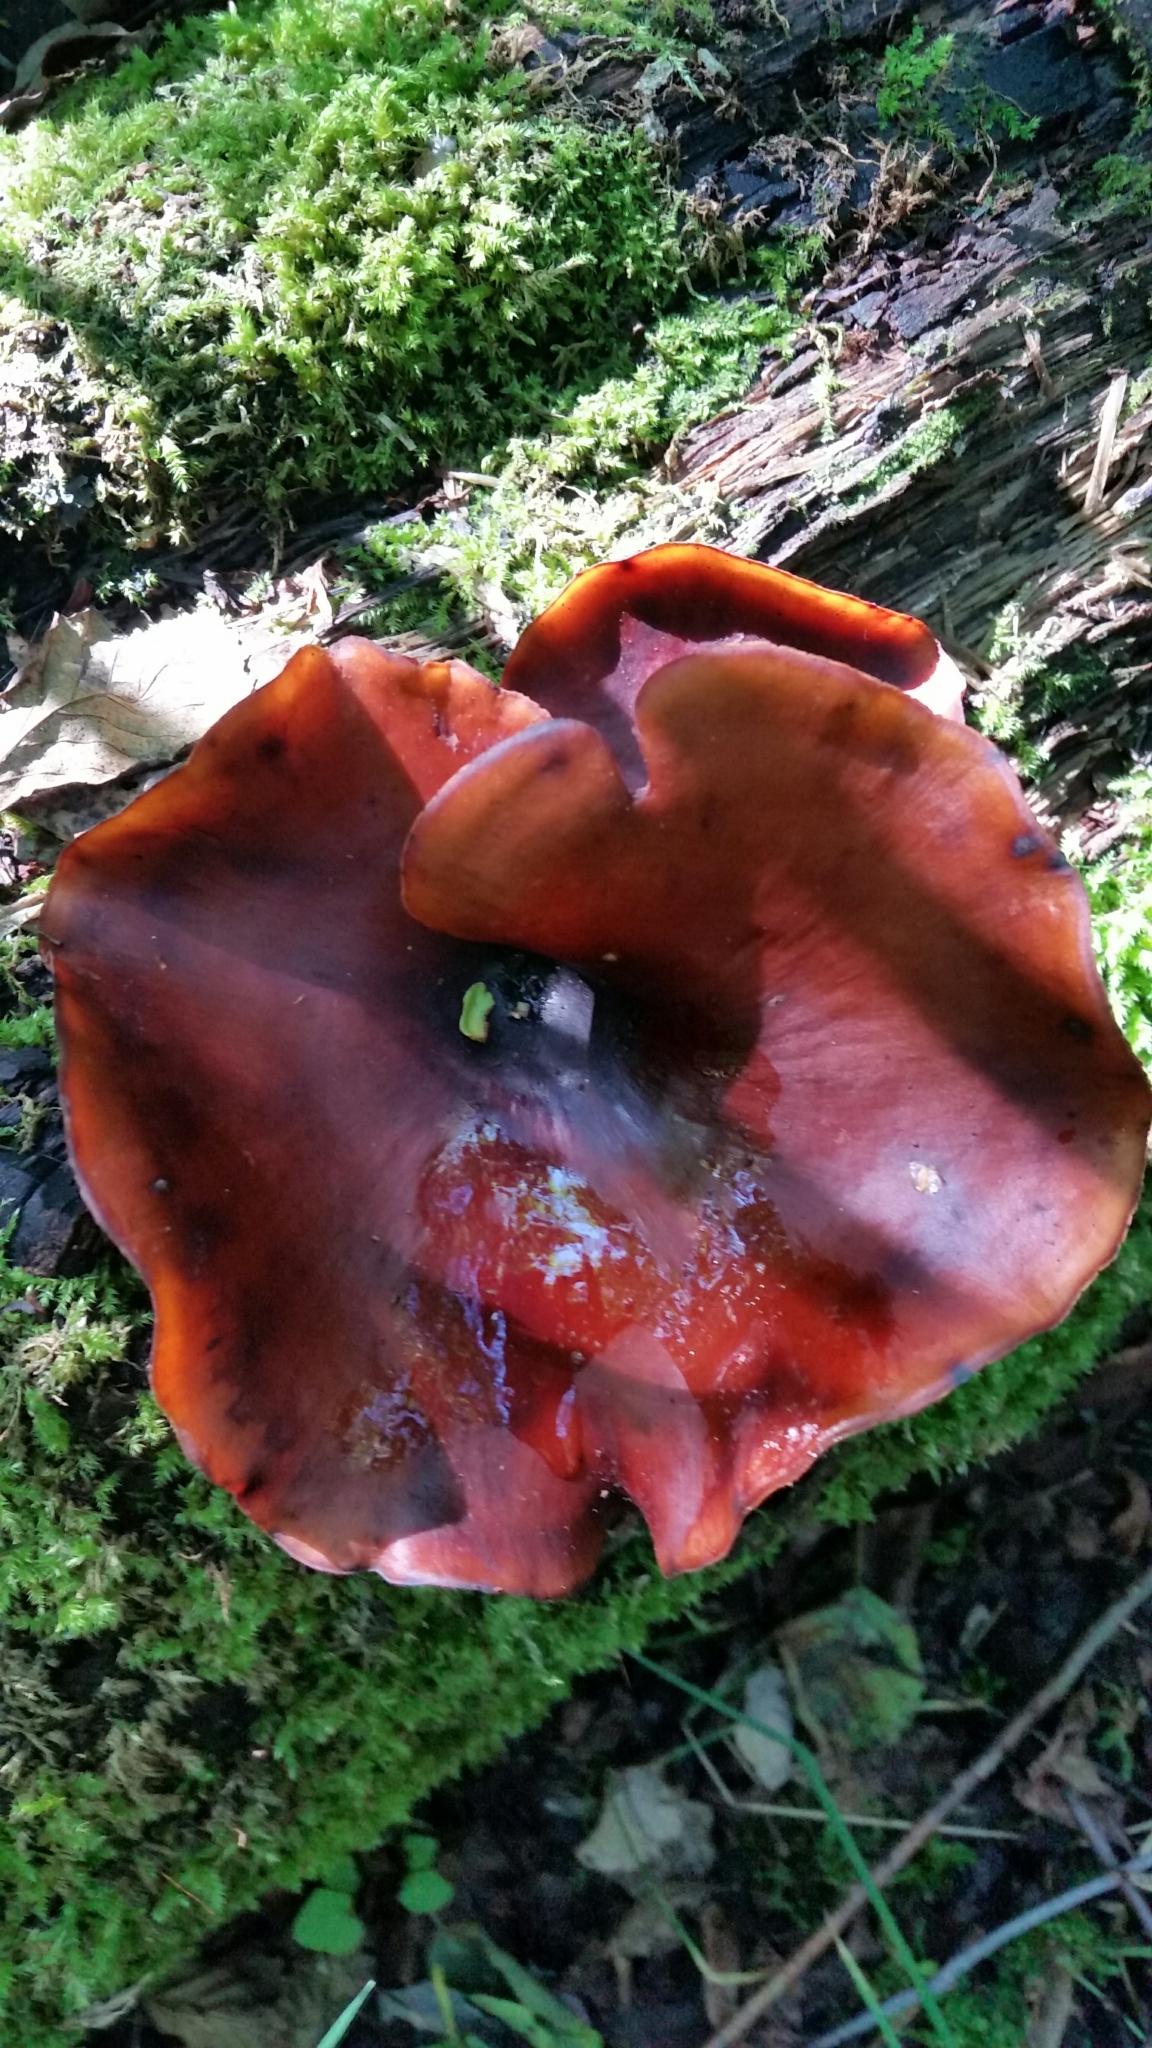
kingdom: Fungi
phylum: Basidiomycota
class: Agaricomycetes
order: Polyporales
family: Polyporaceae
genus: Picipes
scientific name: Picipes badius
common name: Bay polypore
